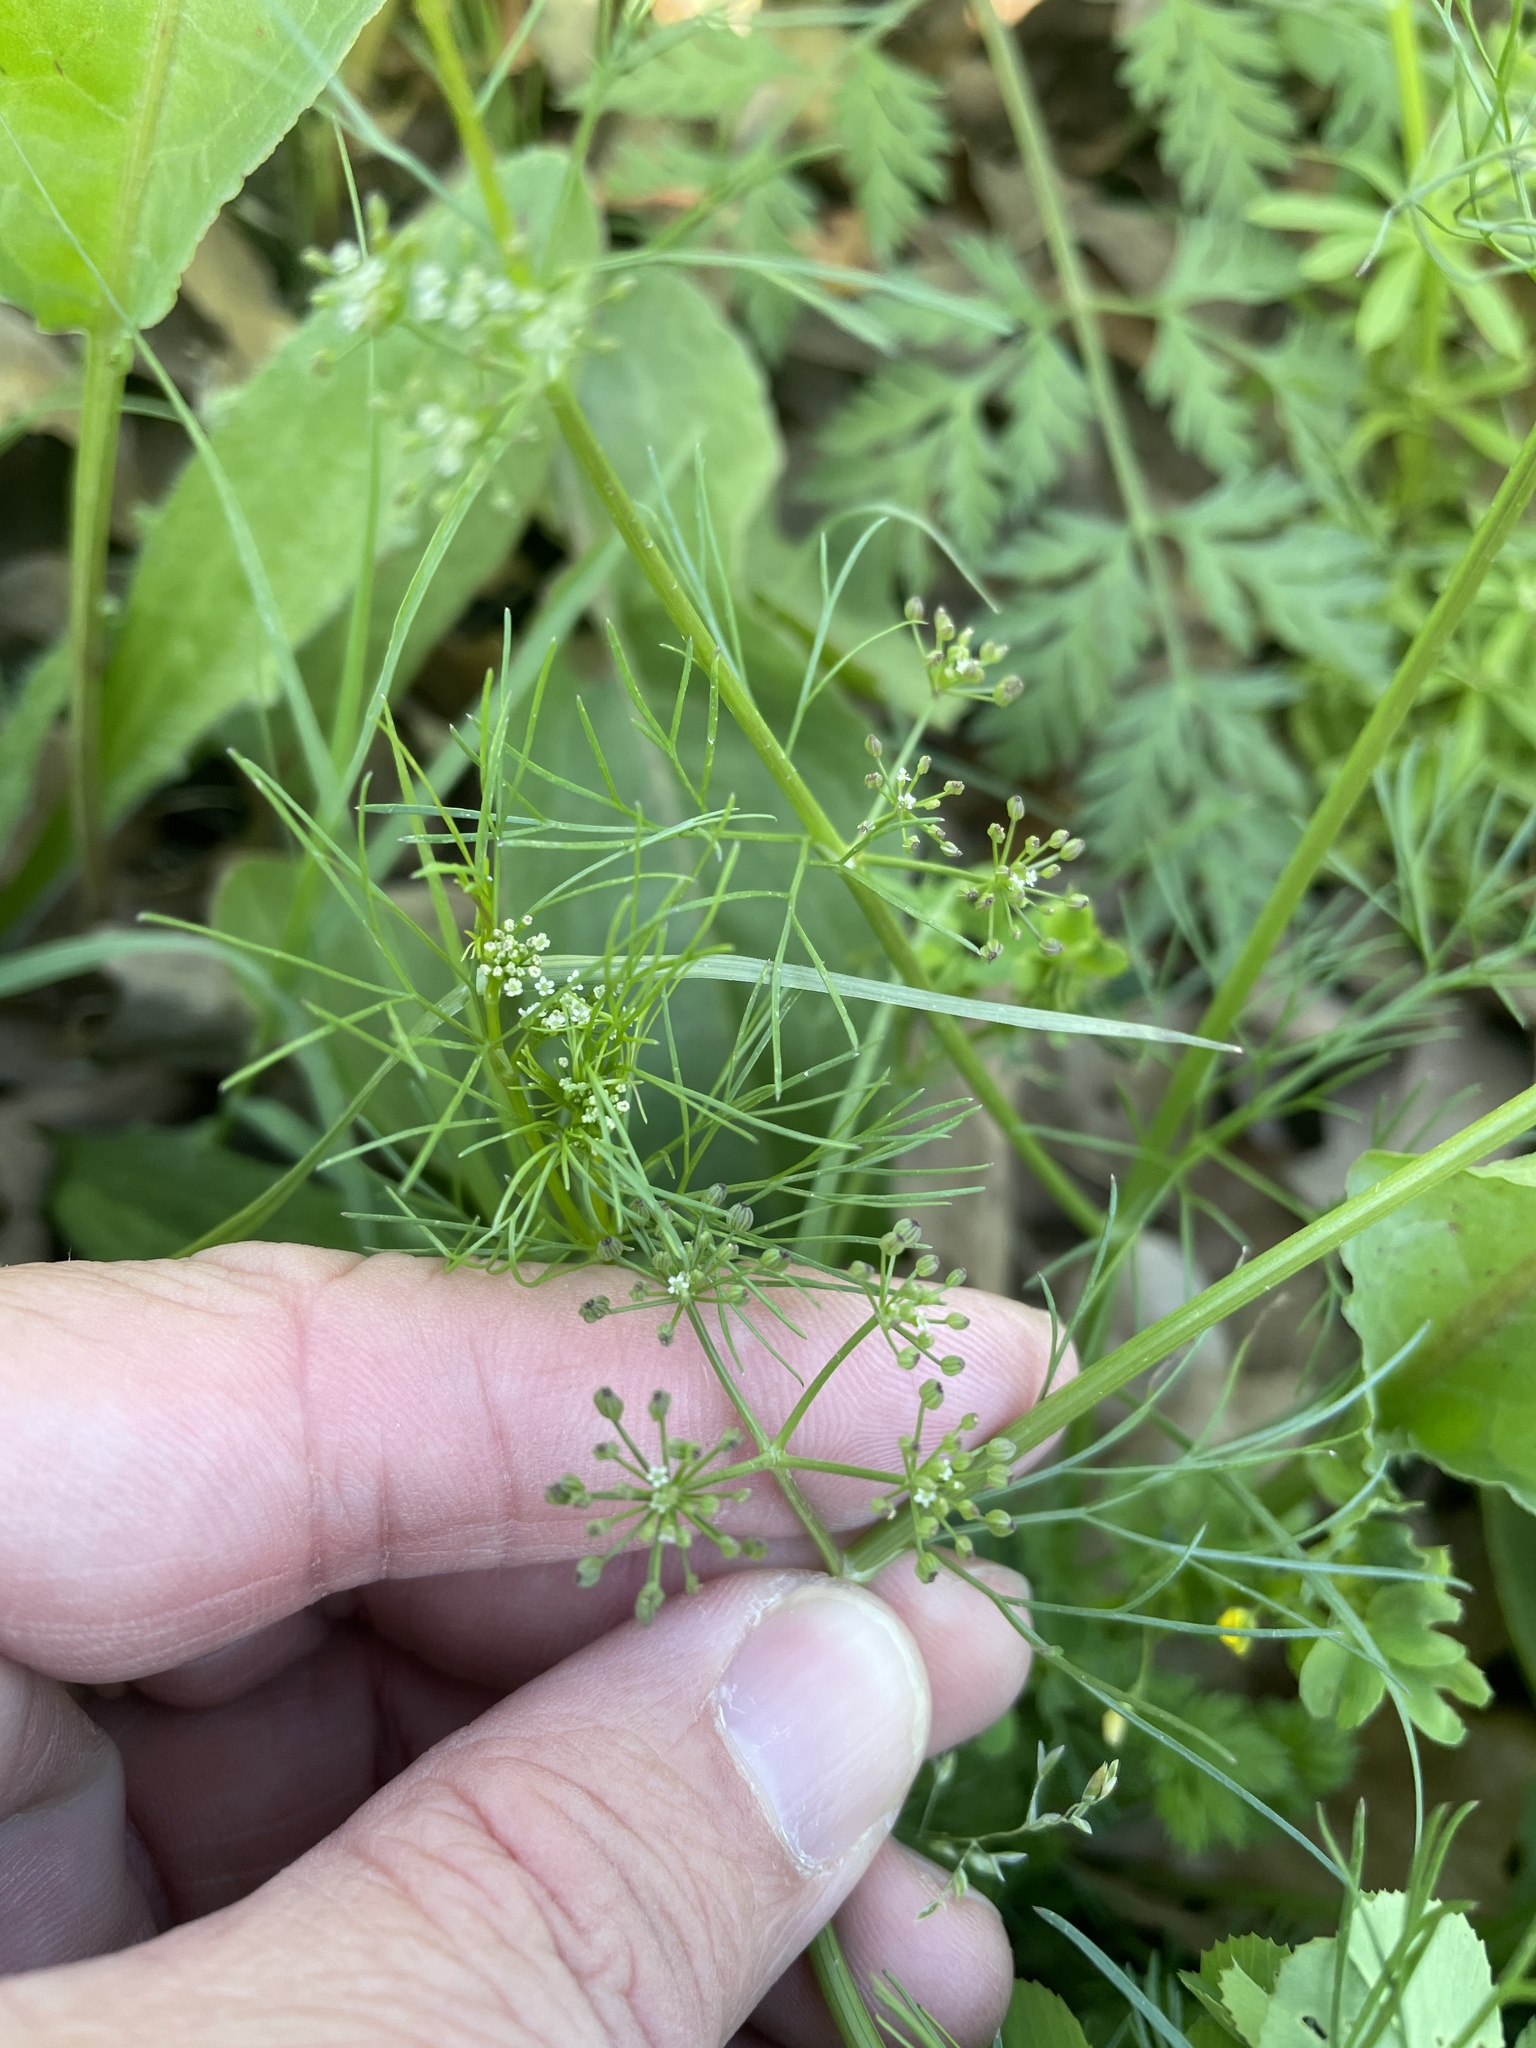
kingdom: Plantae
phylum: Tracheophyta
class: Magnoliopsida
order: Apiales
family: Apiaceae
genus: Cyclospermum
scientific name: Cyclospermum leptophyllum
